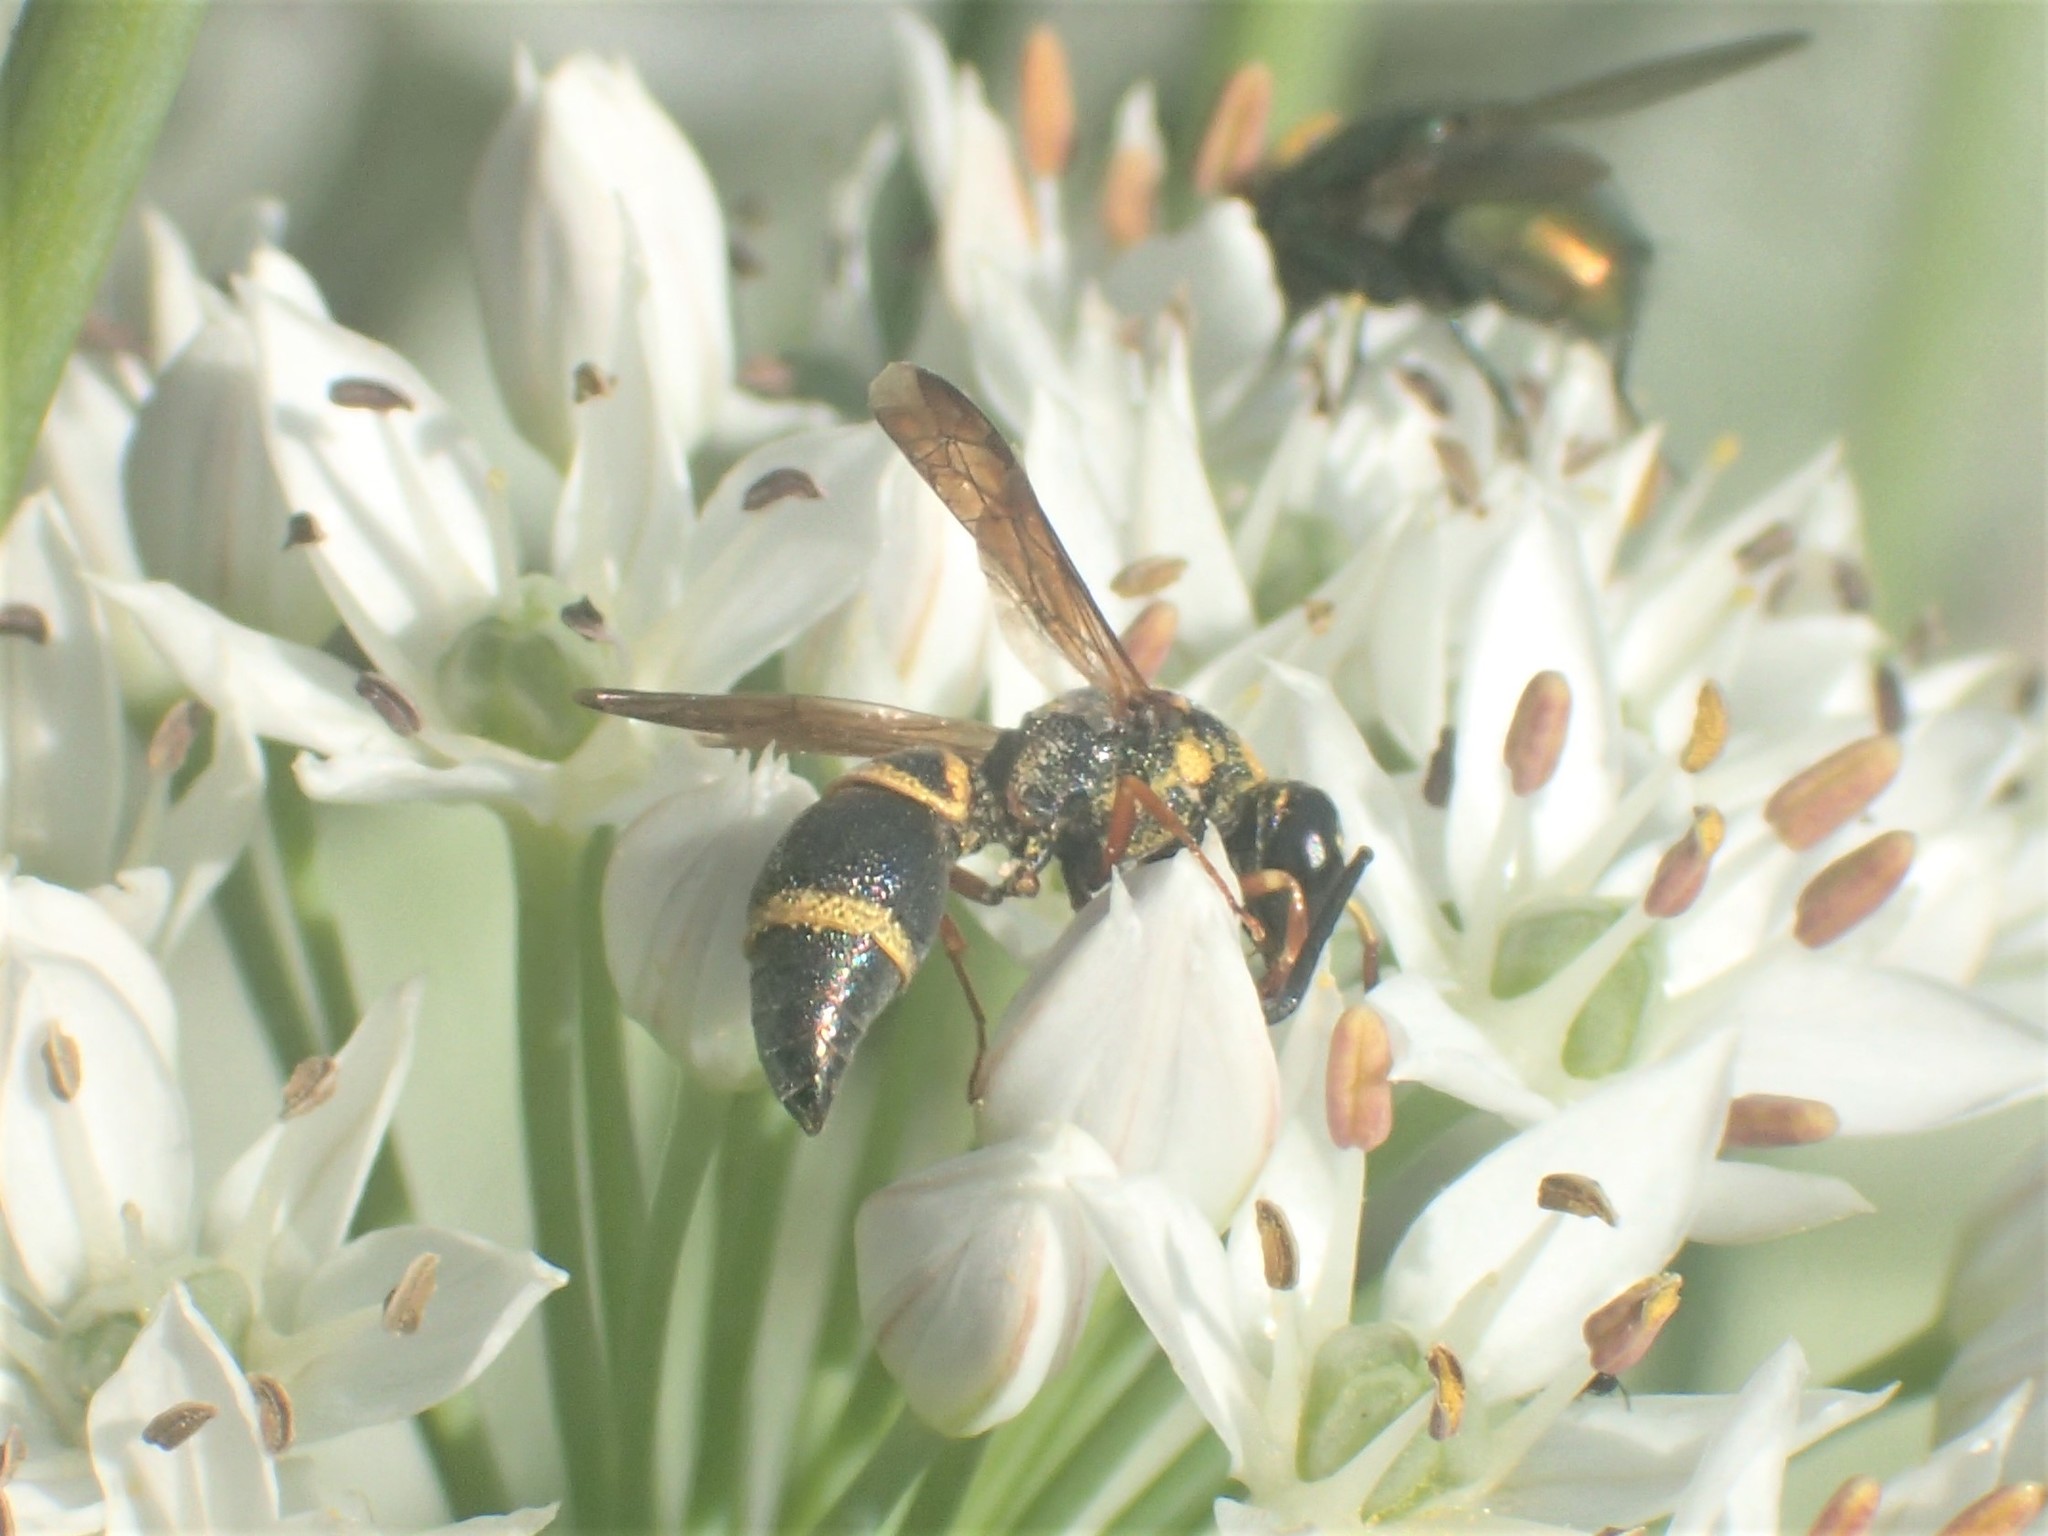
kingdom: Animalia
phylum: Arthropoda
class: Insecta
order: Hymenoptera
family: Eumenidae
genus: Parancistrocerus
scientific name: Parancistrocerus fulvipes
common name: Potter wasp
